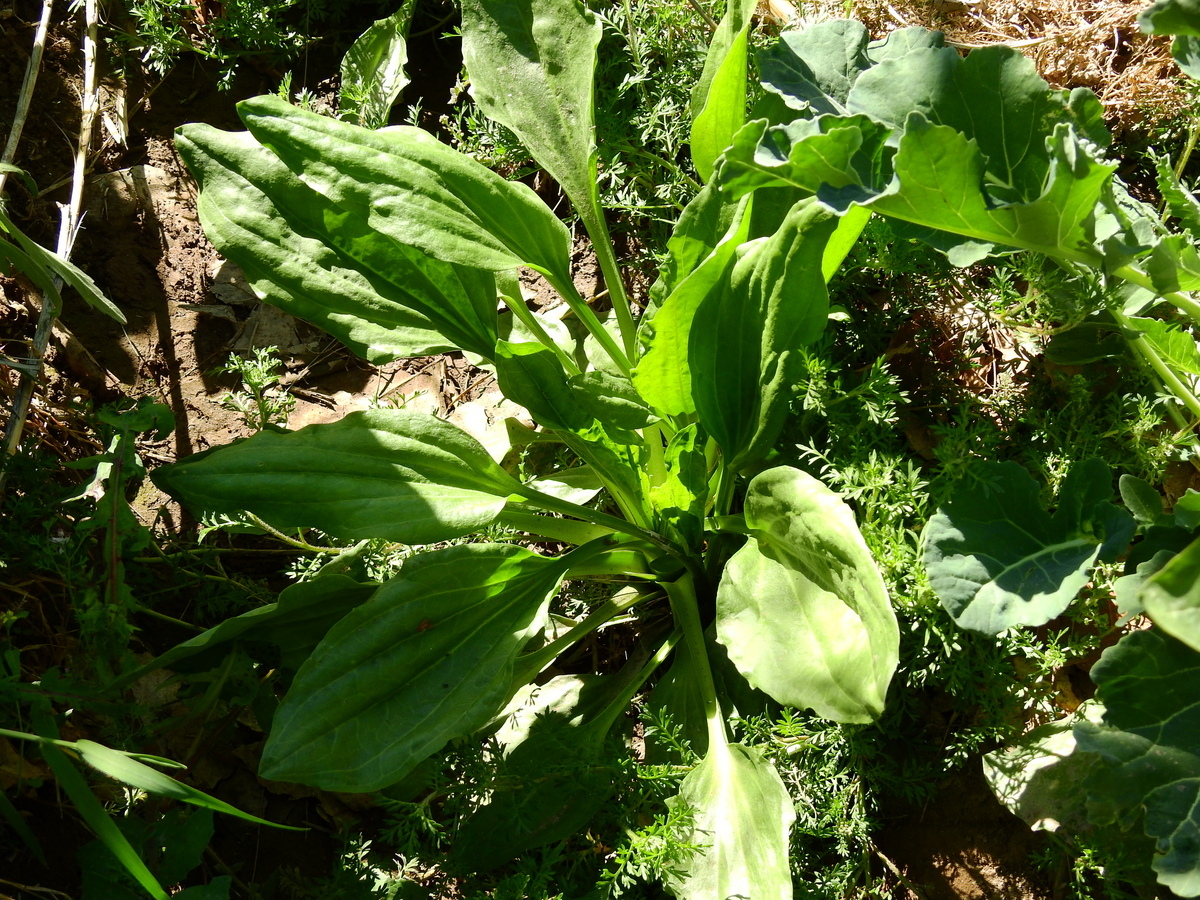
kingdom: Plantae
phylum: Tracheophyta
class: Magnoliopsida
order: Lamiales
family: Plantaginaceae
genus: Plantago
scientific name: Plantago major
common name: Common plantain
